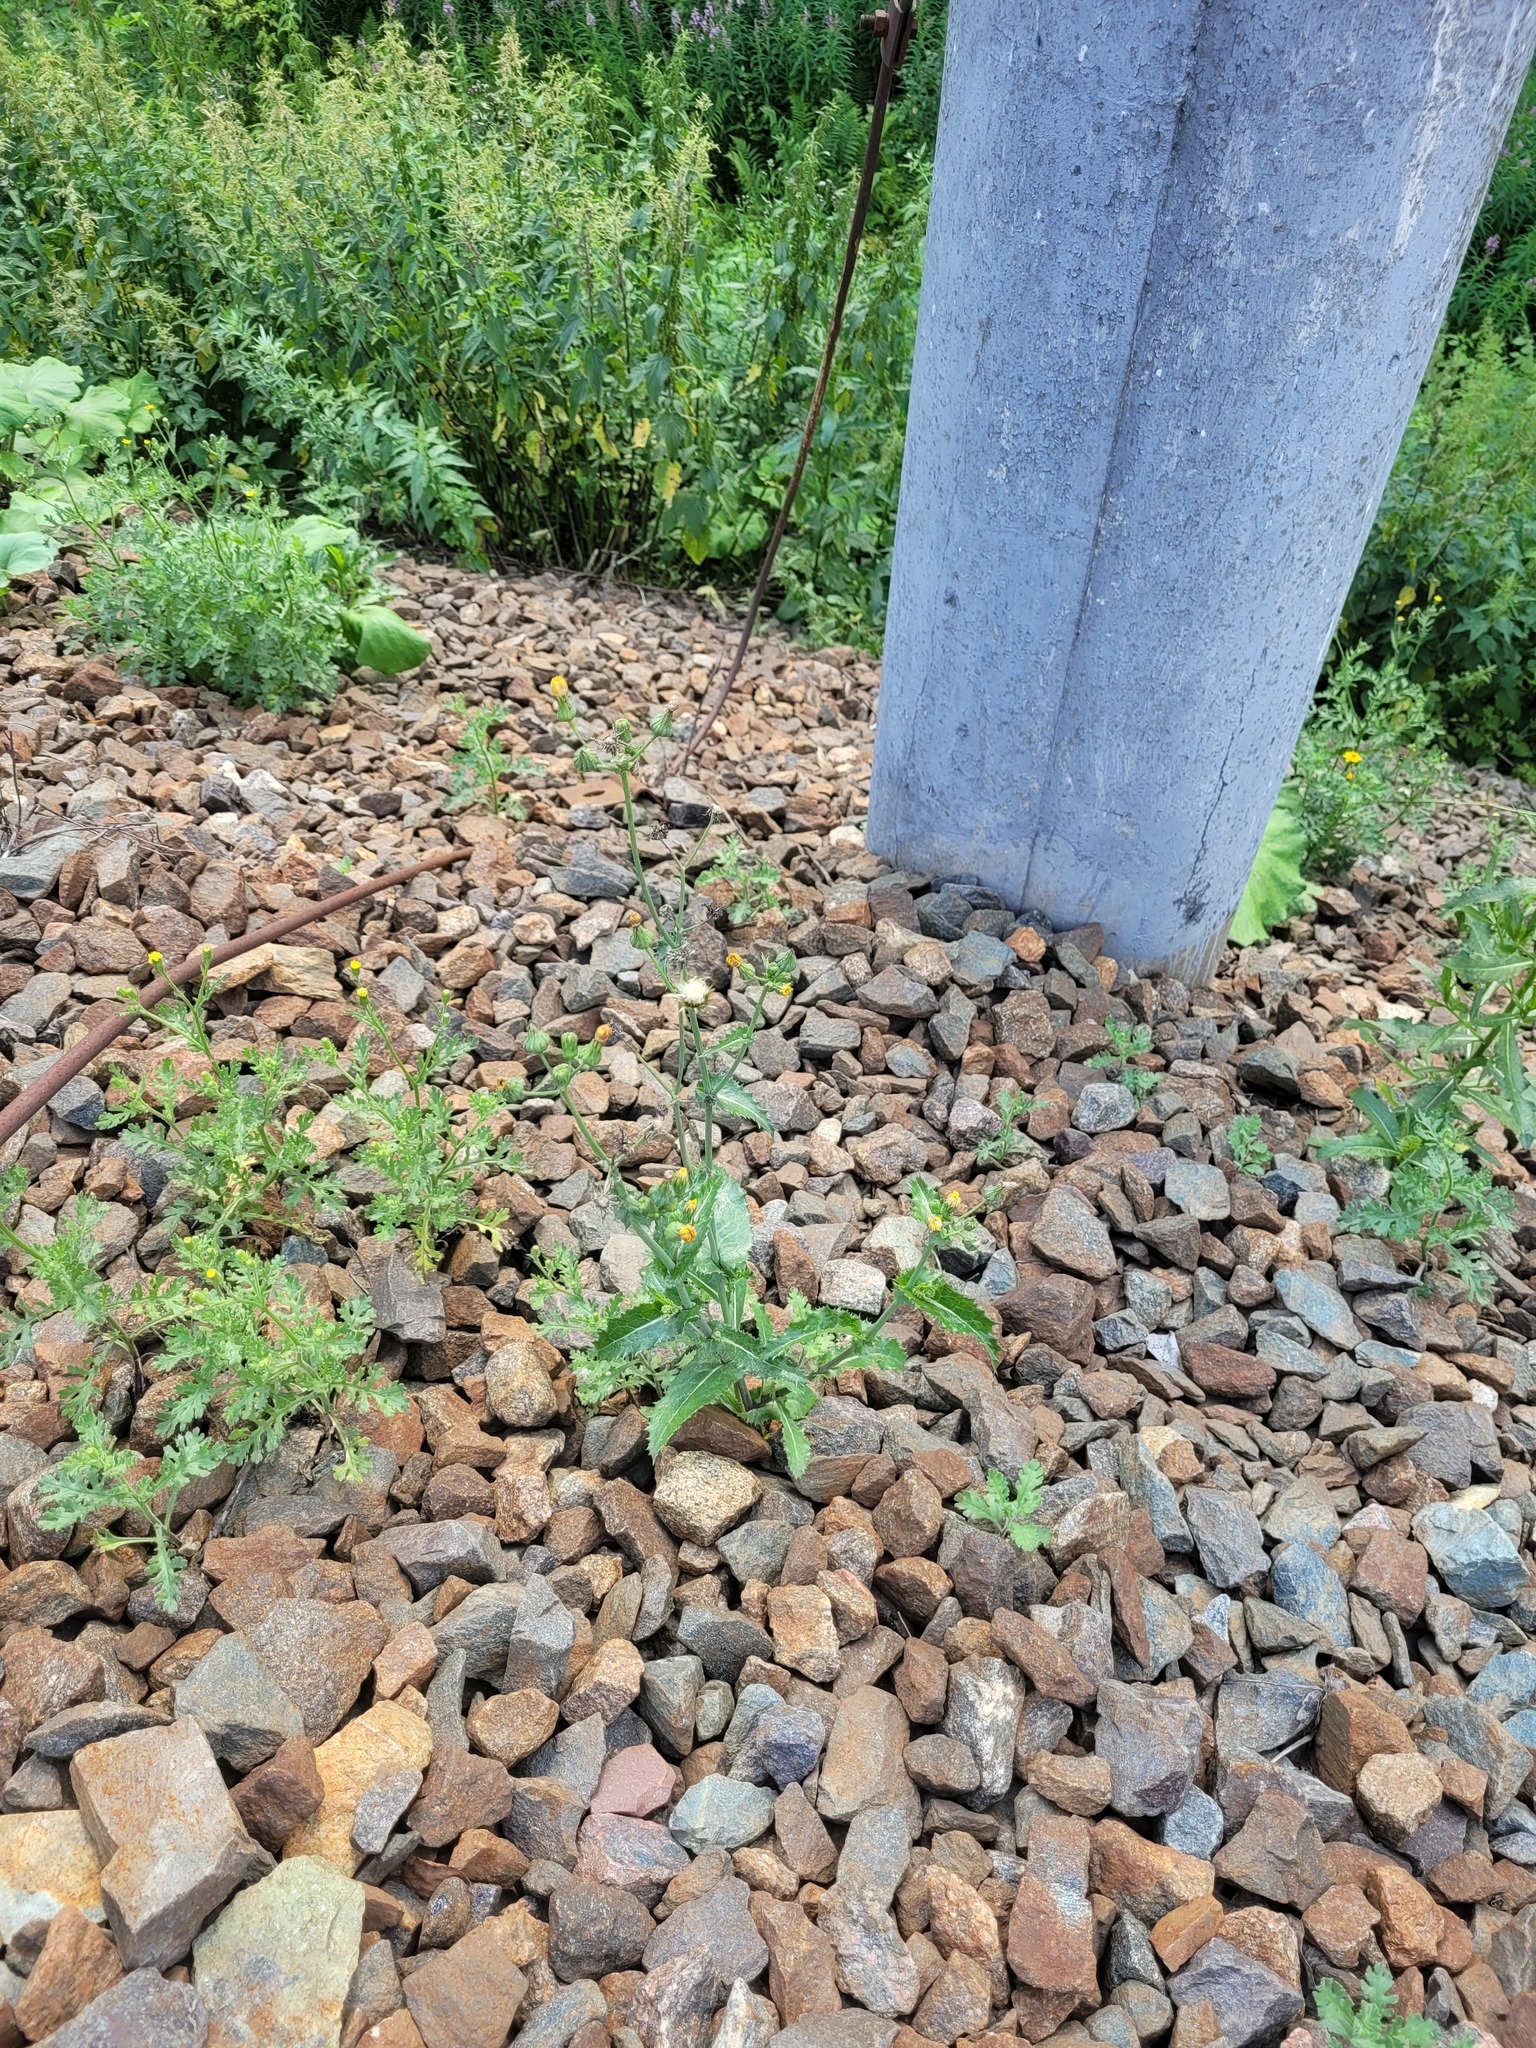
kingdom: Plantae
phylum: Tracheophyta
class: Magnoliopsida
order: Asterales
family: Asteraceae
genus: Sonchus
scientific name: Sonchus asper
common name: Prickly sow-thistle
